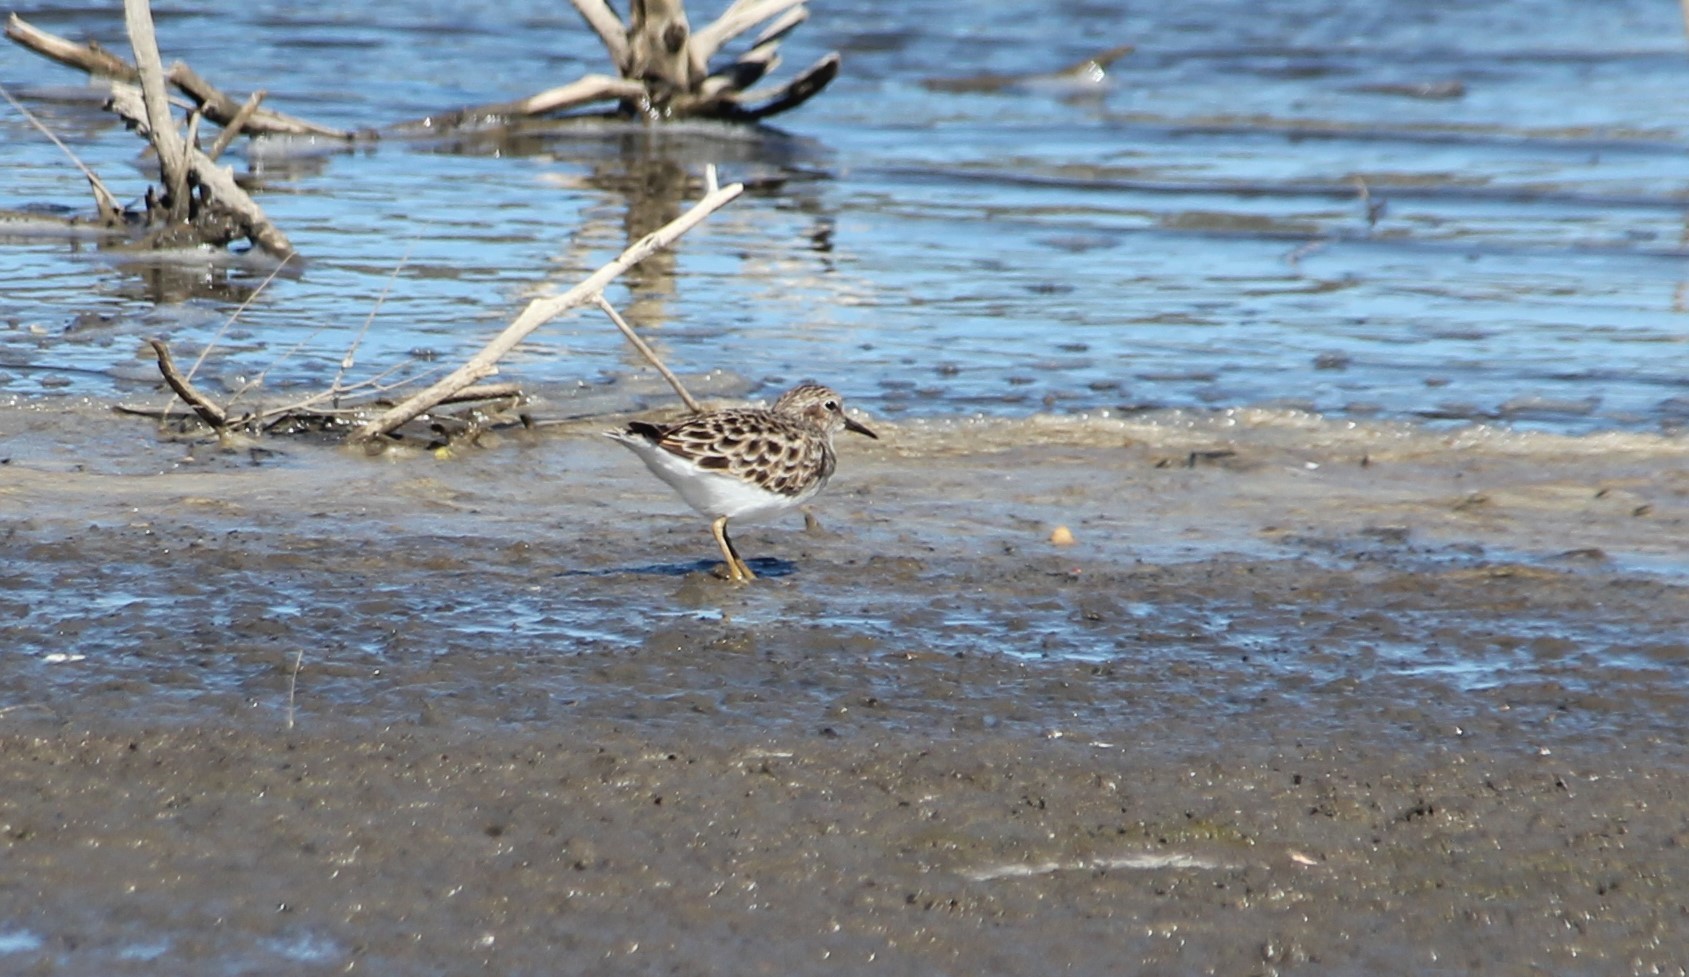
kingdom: Animalia
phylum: Chordata
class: Aves
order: Charadriiformes
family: Scolopacidae
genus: Calidris
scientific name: Calidris minutilla
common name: Least sandpiper
